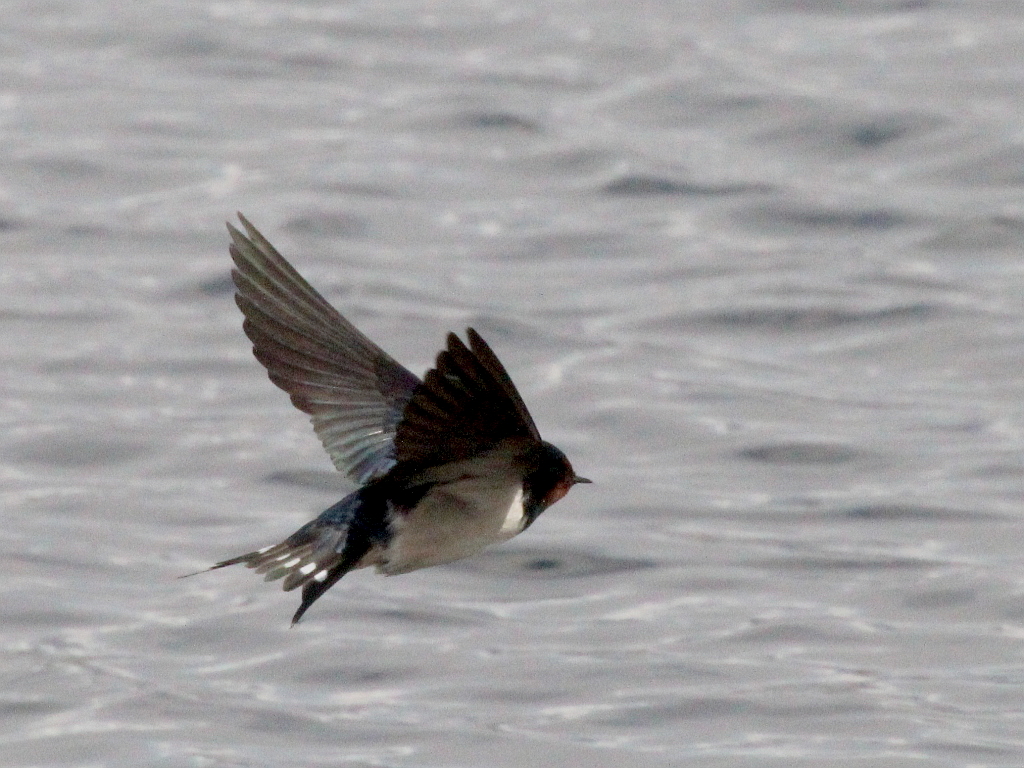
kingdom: Animalia
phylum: Chordata
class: Aves
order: Passeriformes
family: Hirundinidae
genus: Hirundo
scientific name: Hirundo rustica
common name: Barn swallow
